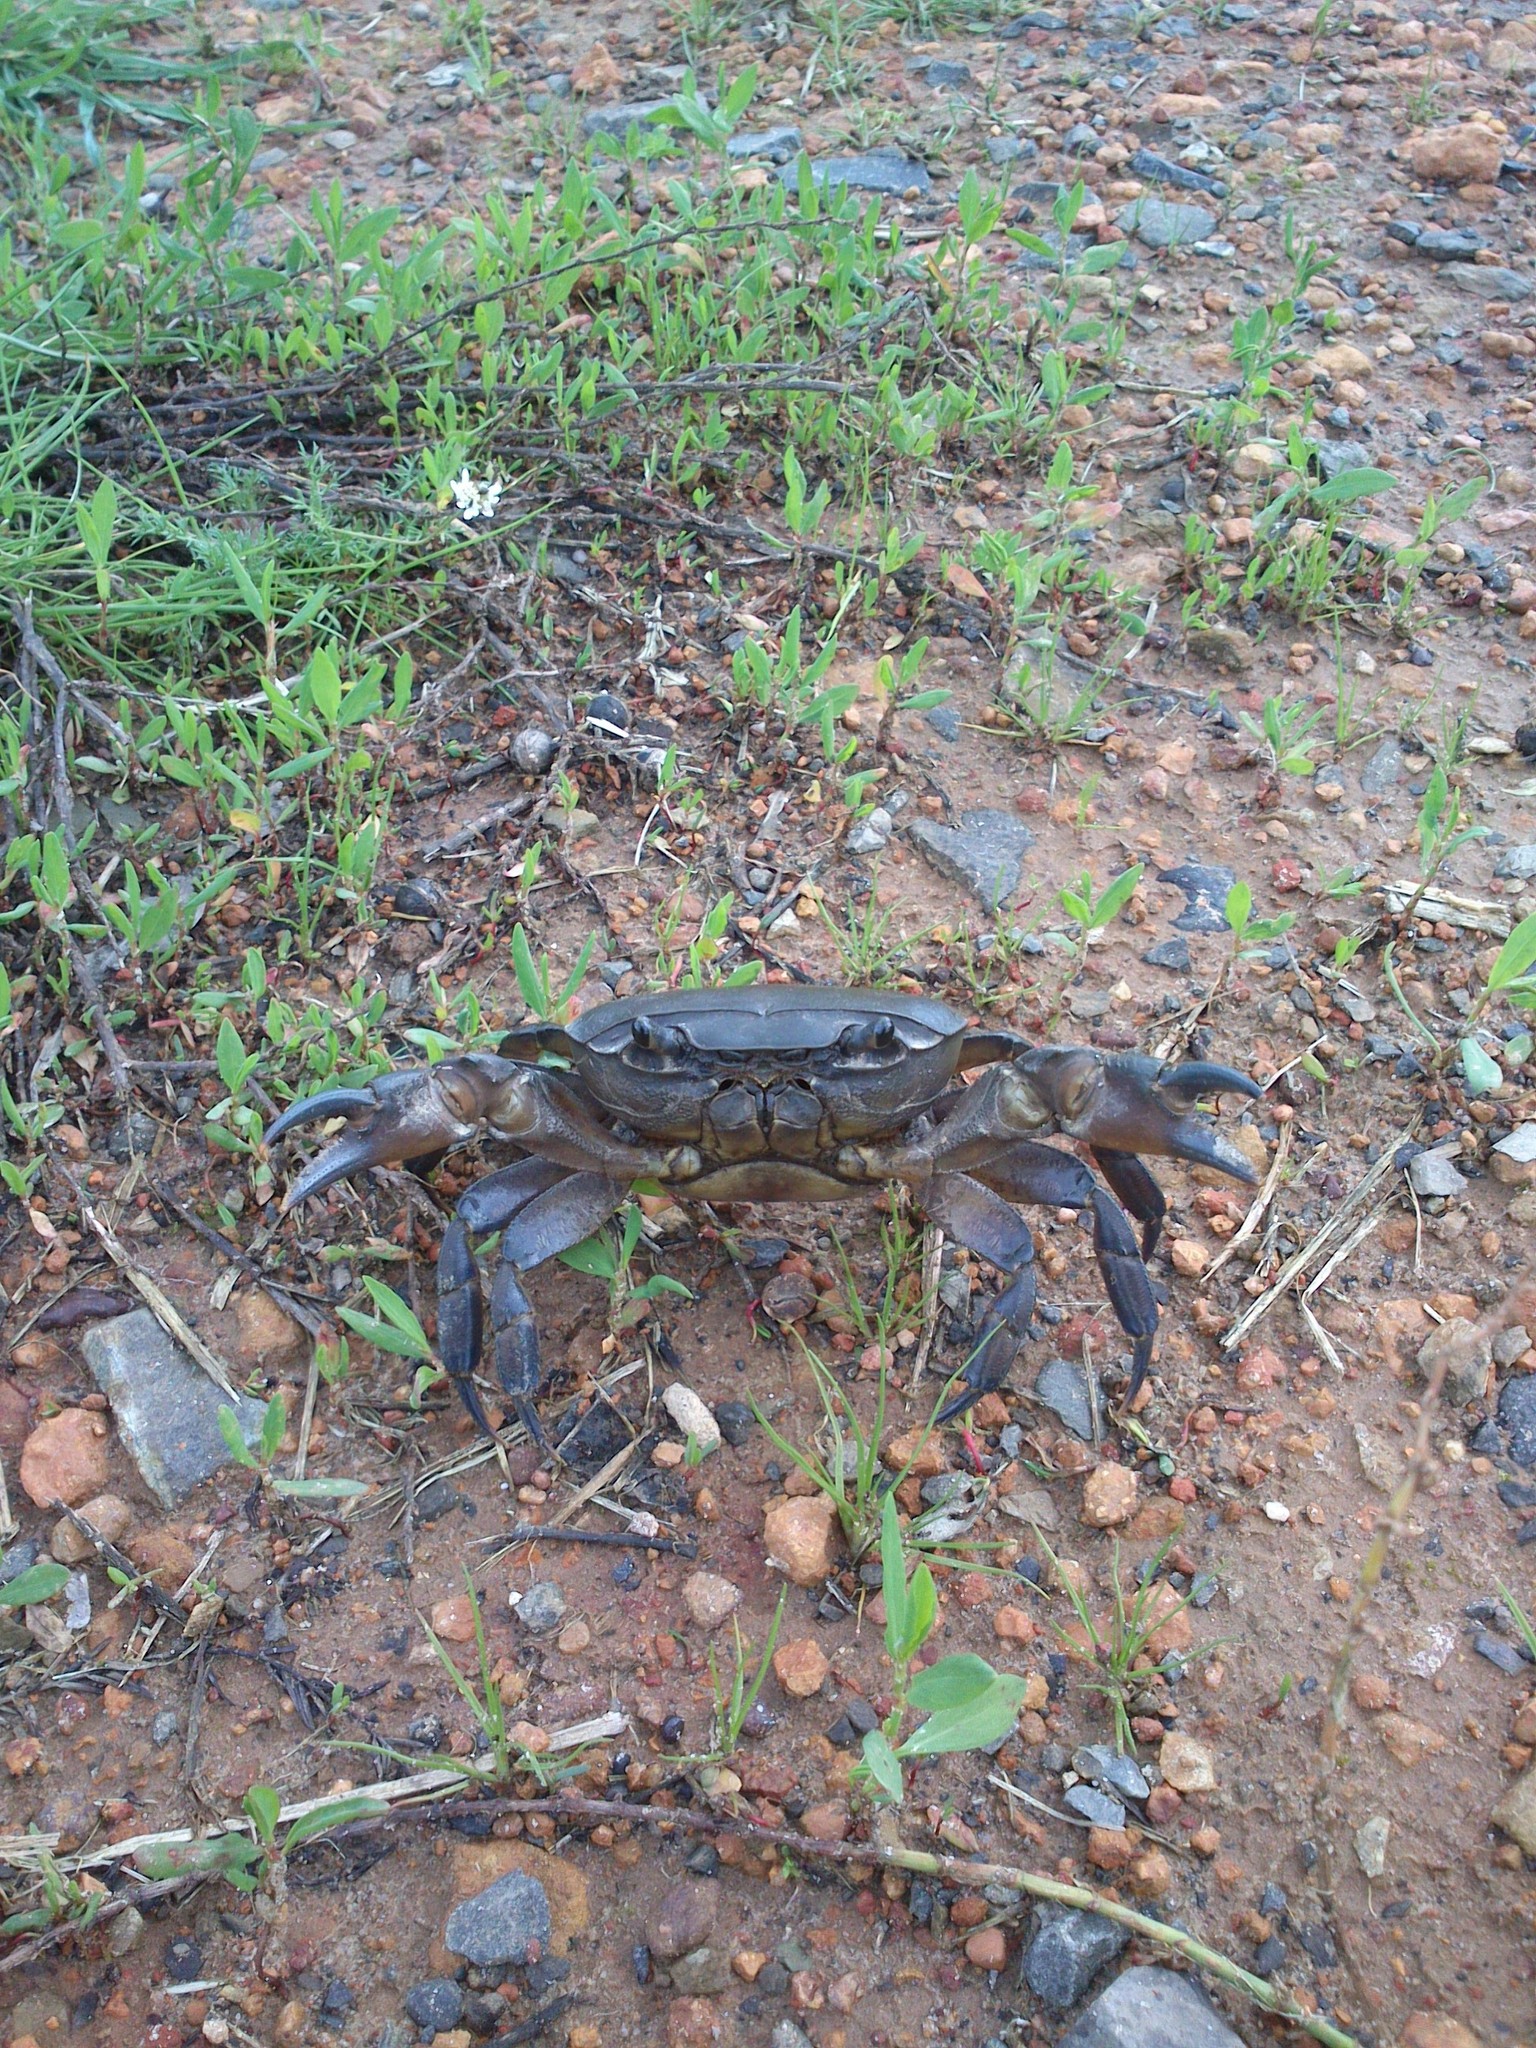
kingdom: Animalia
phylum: Arthropoda
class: Malacostraca
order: Decapoda
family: Potamonautidae
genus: Potamonautes
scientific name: Potamonautes perlatus
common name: Cape river crab
